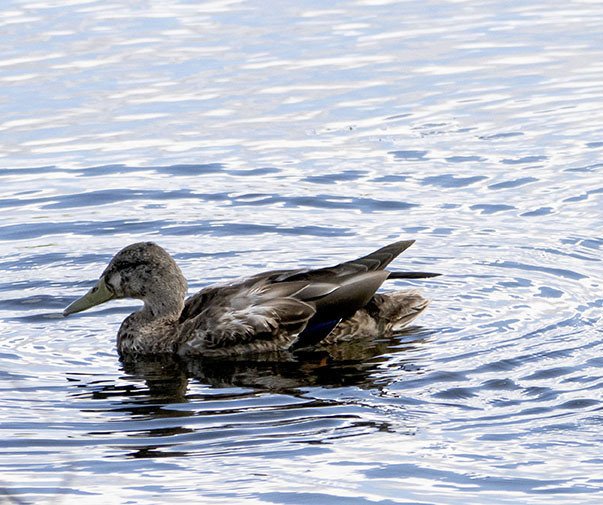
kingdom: Animalia
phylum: Chordata
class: Aves
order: Anseriformes
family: Anatidae
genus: Anas
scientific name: Anas platyrhynchos
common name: Mallard
